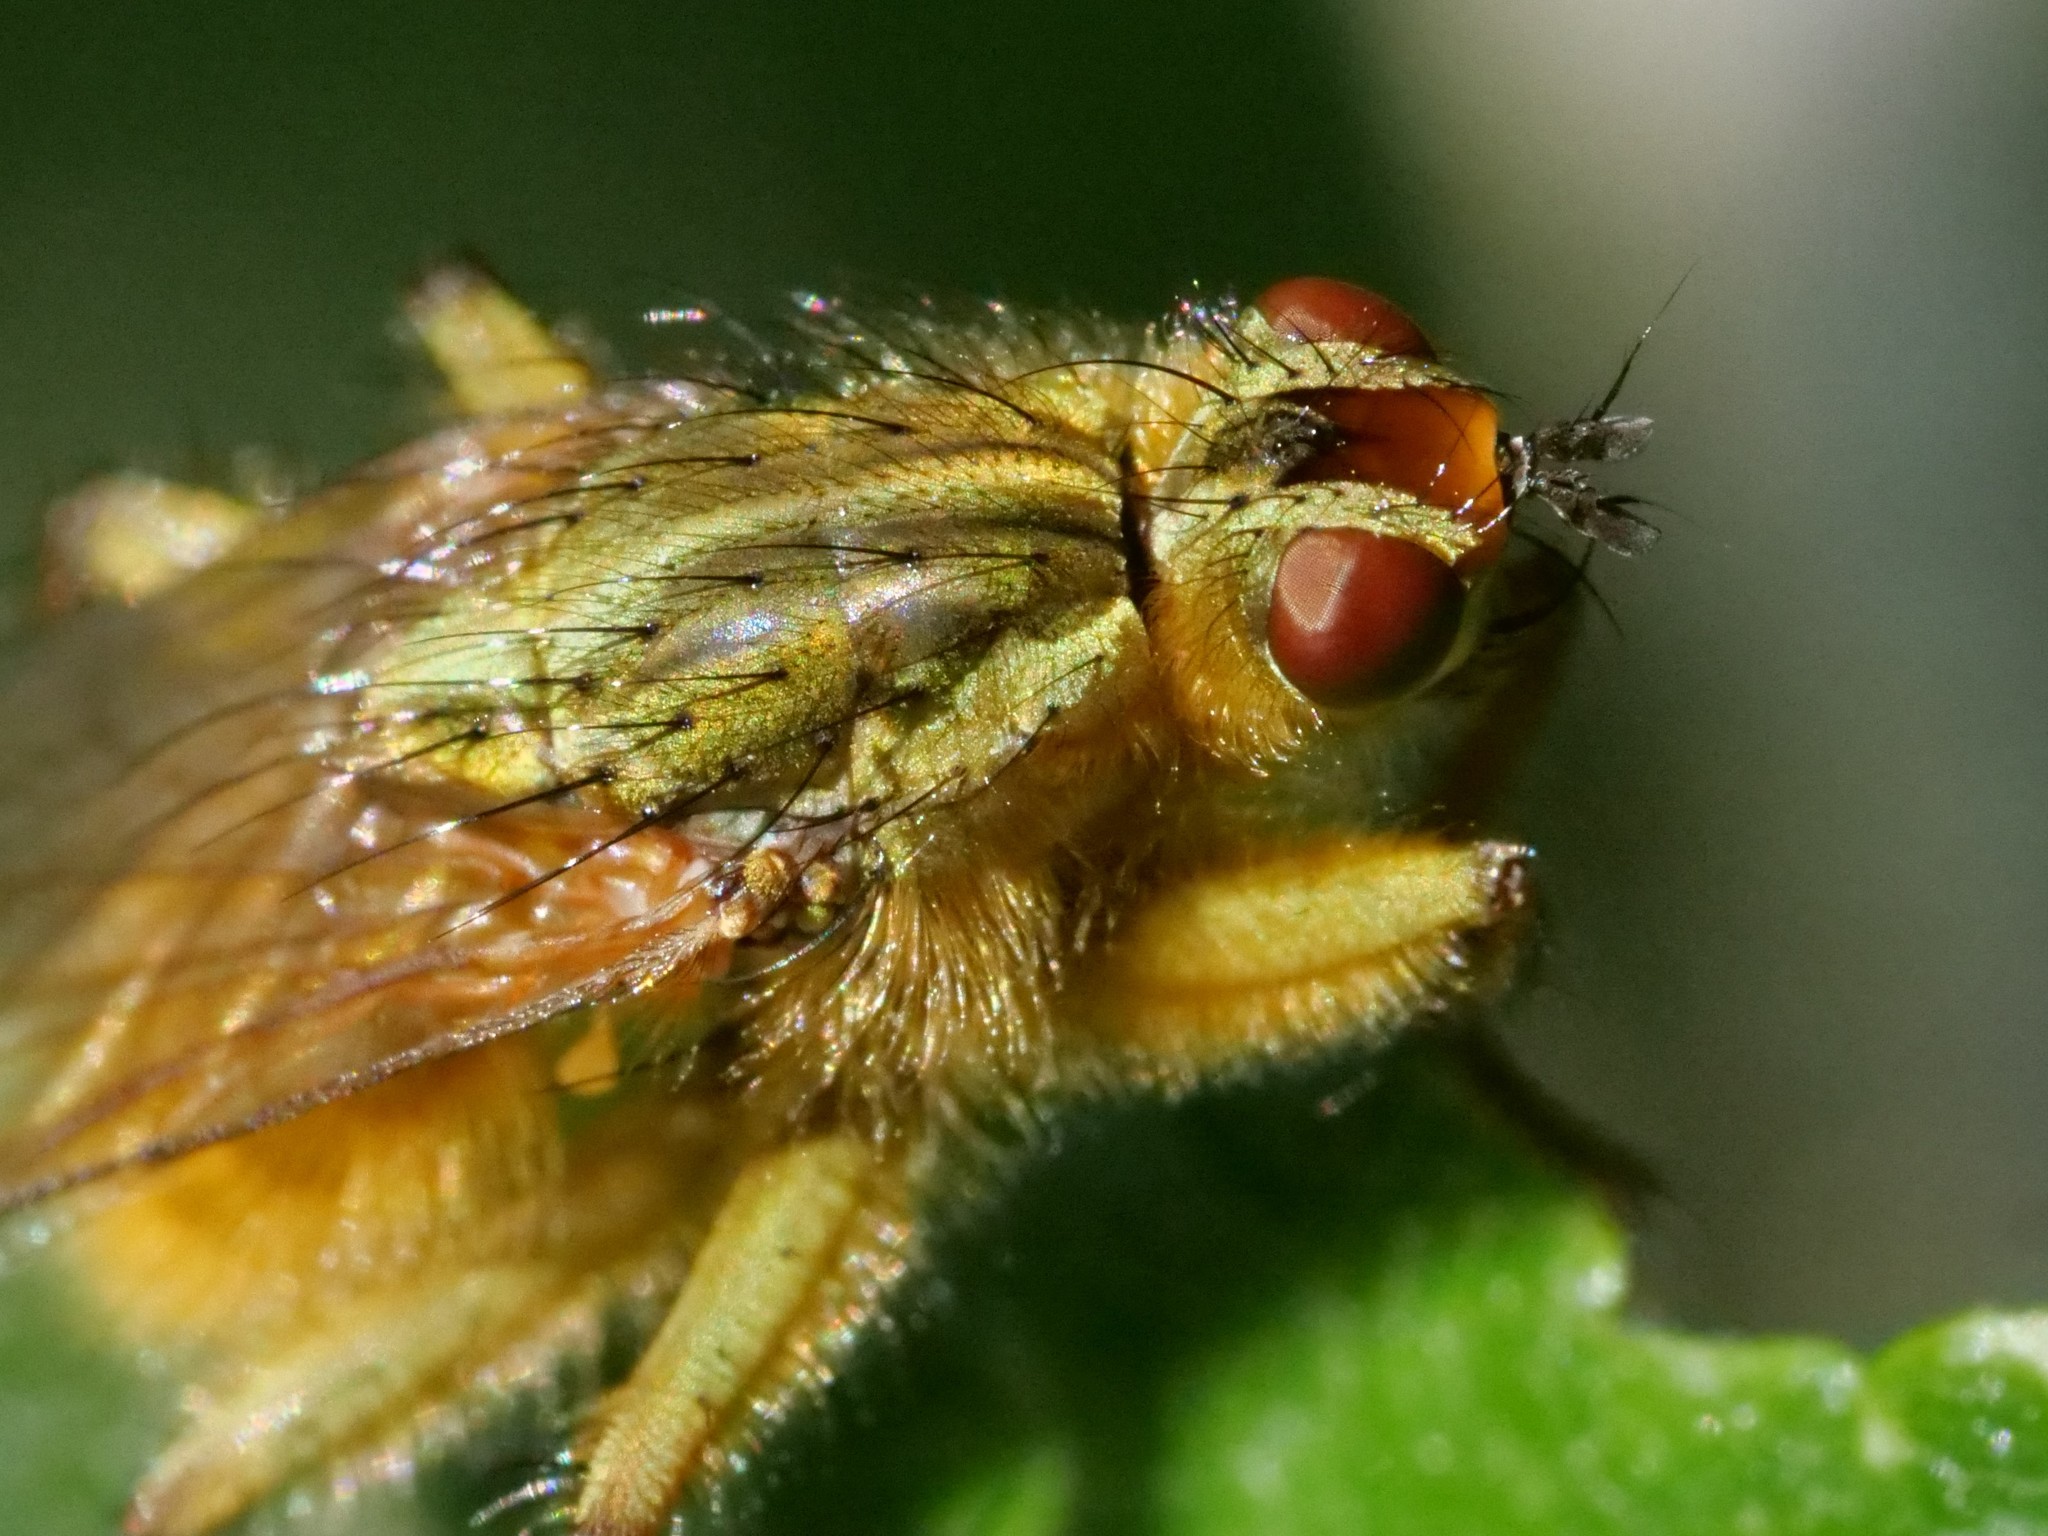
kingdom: Animalia
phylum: Arthropoda
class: Insecta
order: Diptera
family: Scathophagidae
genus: Scathophaga
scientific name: Scathophaga stercoraria
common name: Yellow dung fly
